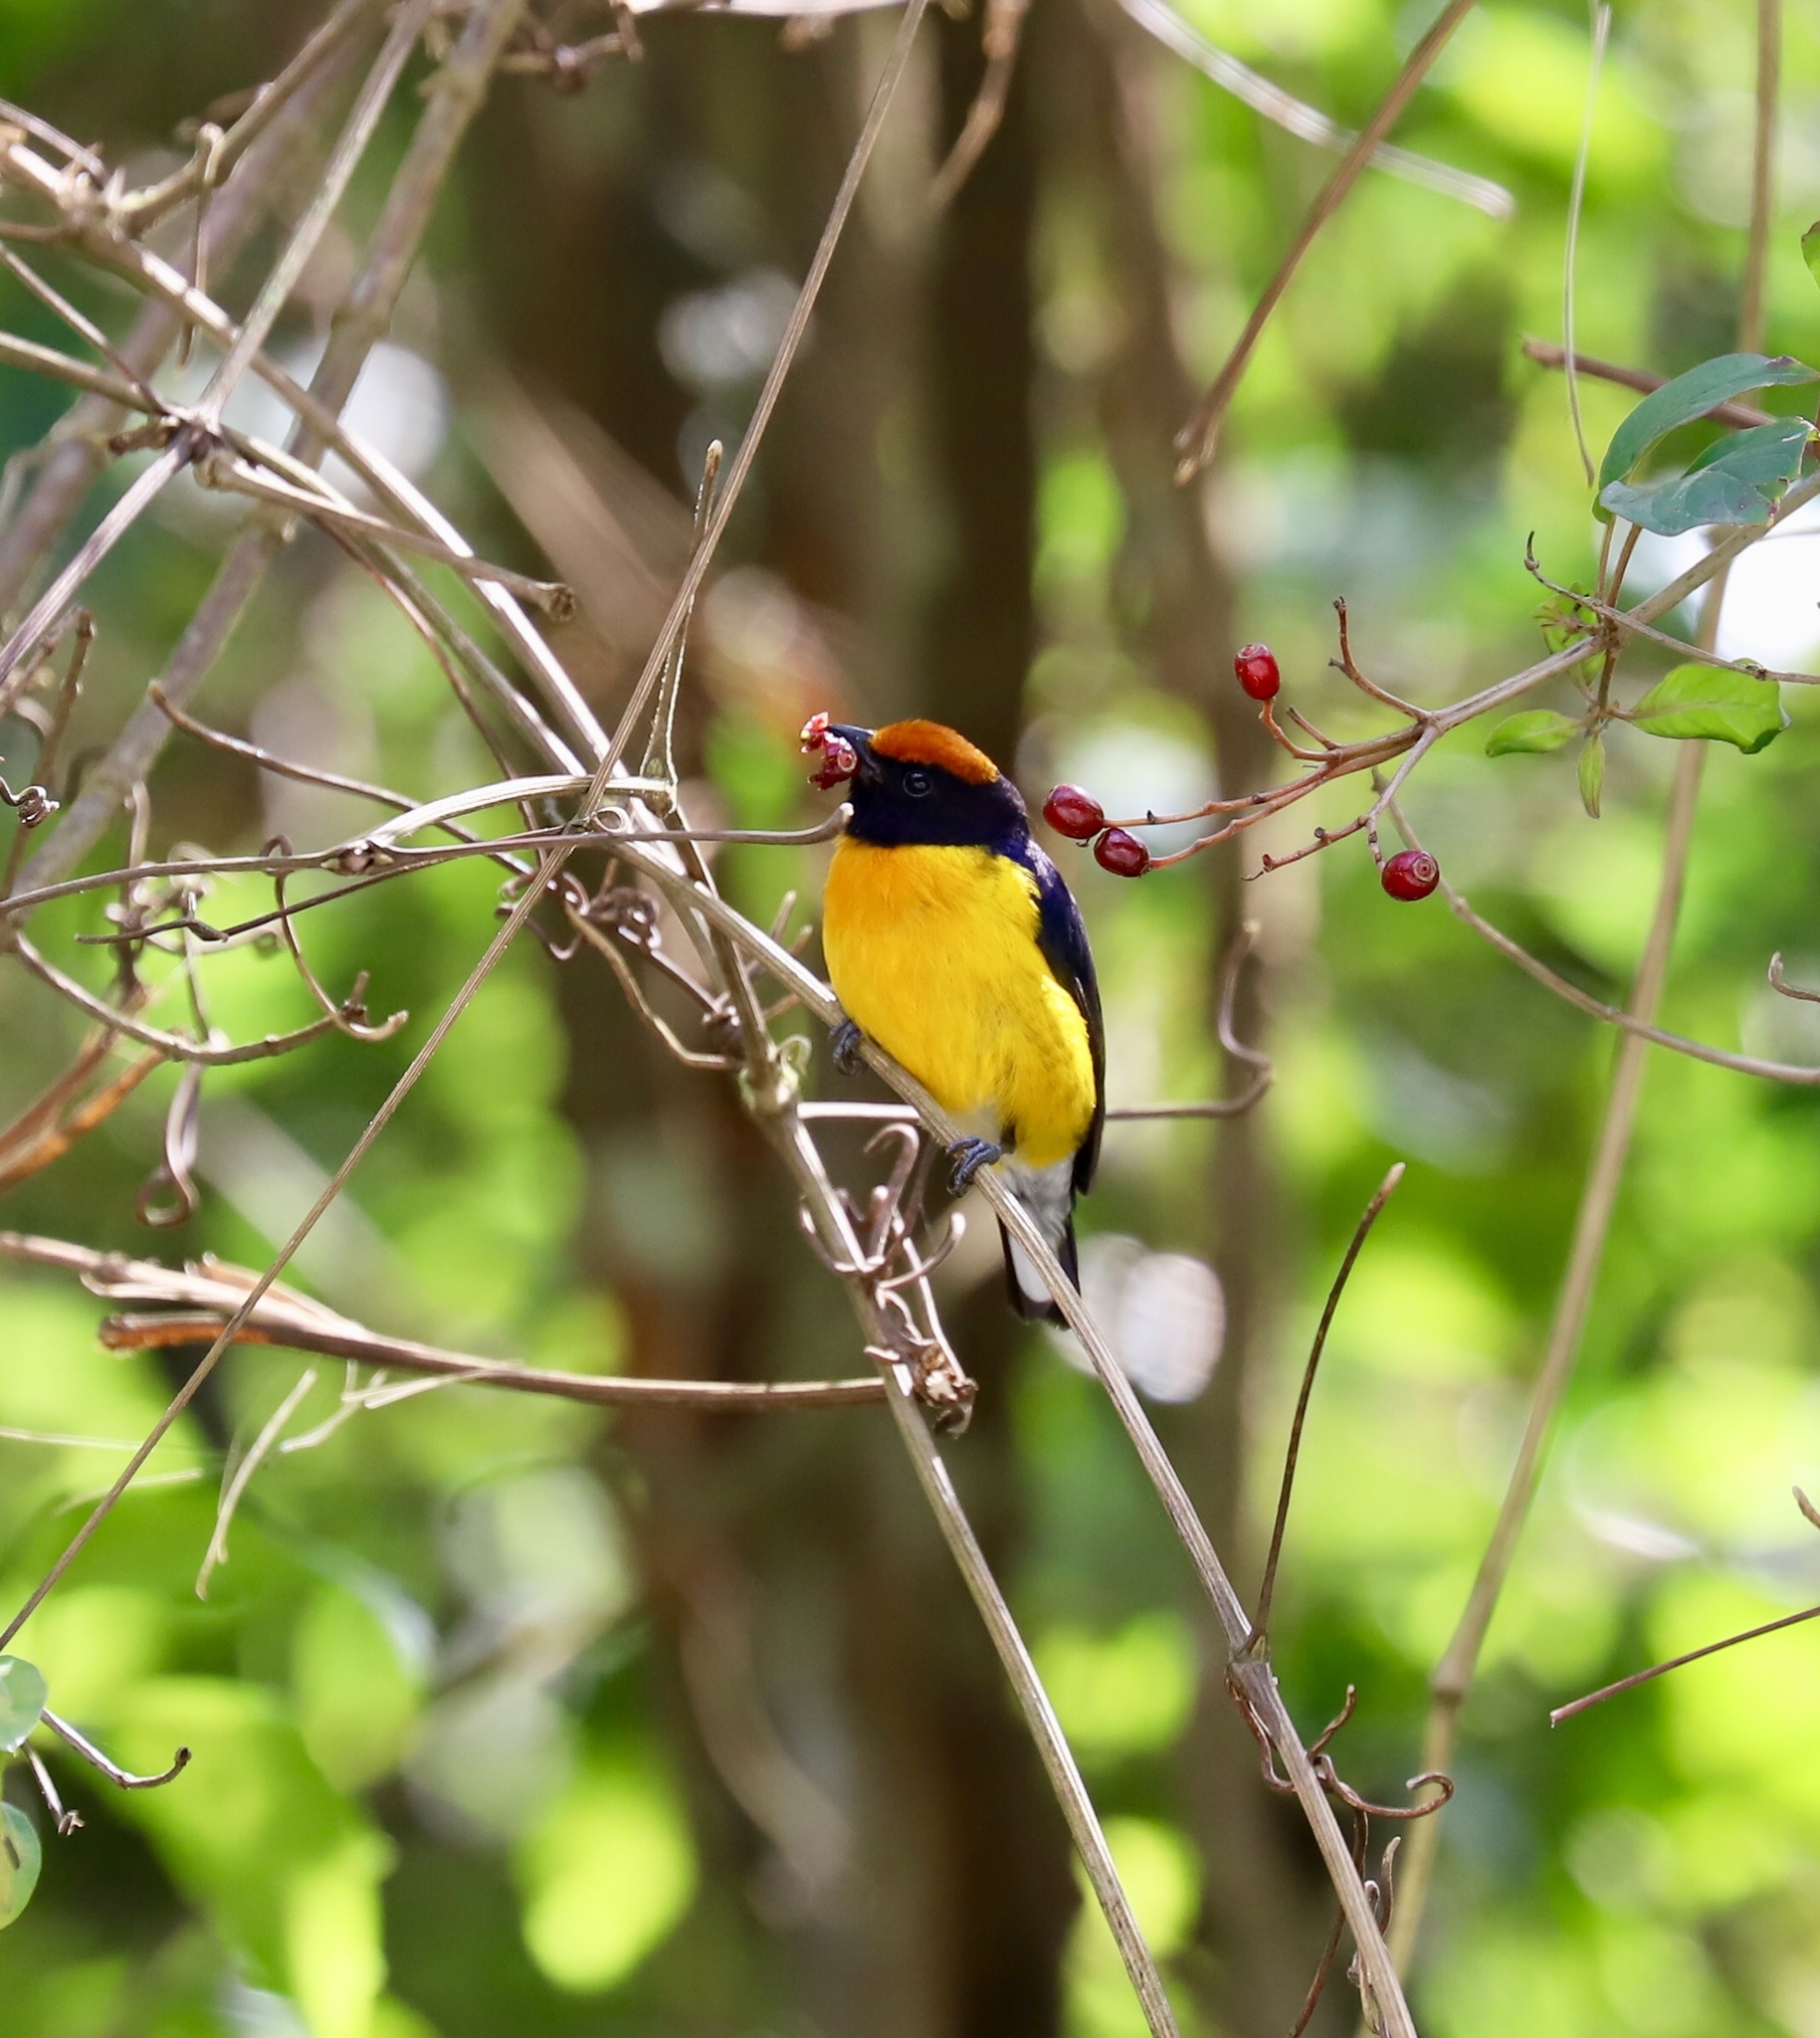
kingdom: Animalia
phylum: Chordata
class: Aves
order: Passeriformes
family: Fringillidae
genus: Euphonia
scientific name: Euphonia anneae
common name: Tawny-capped euphonia
